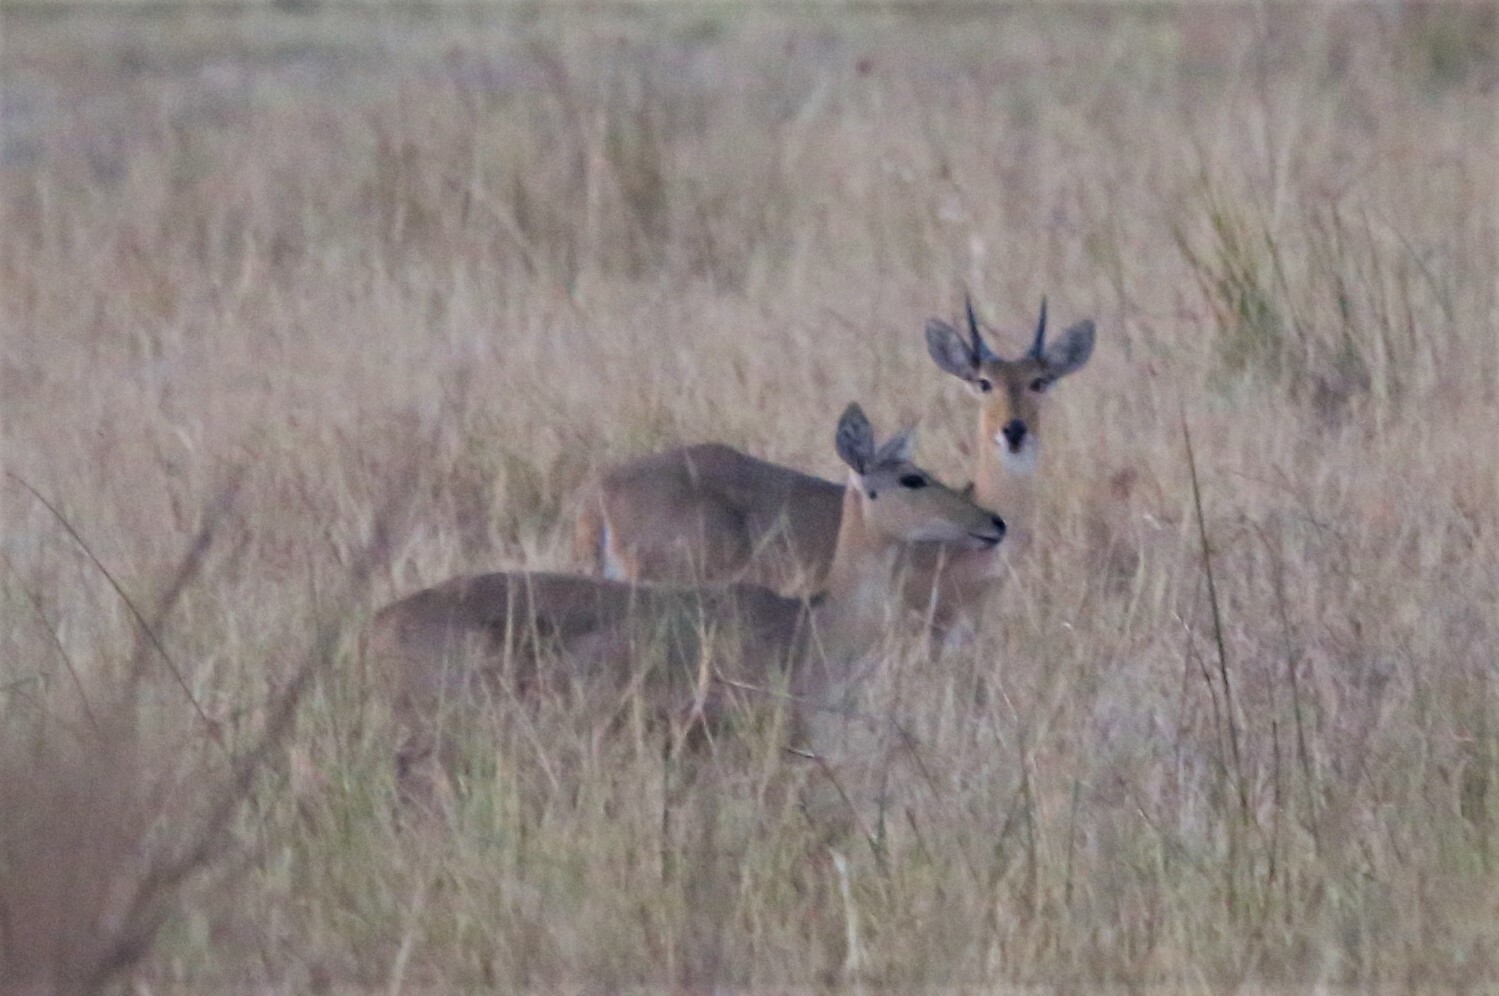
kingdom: Animalia
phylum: Chordata
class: Mammalia
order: Artiodactyla
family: Bovidae
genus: Redunca
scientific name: Redunca arundinum
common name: Southern reedbuck
